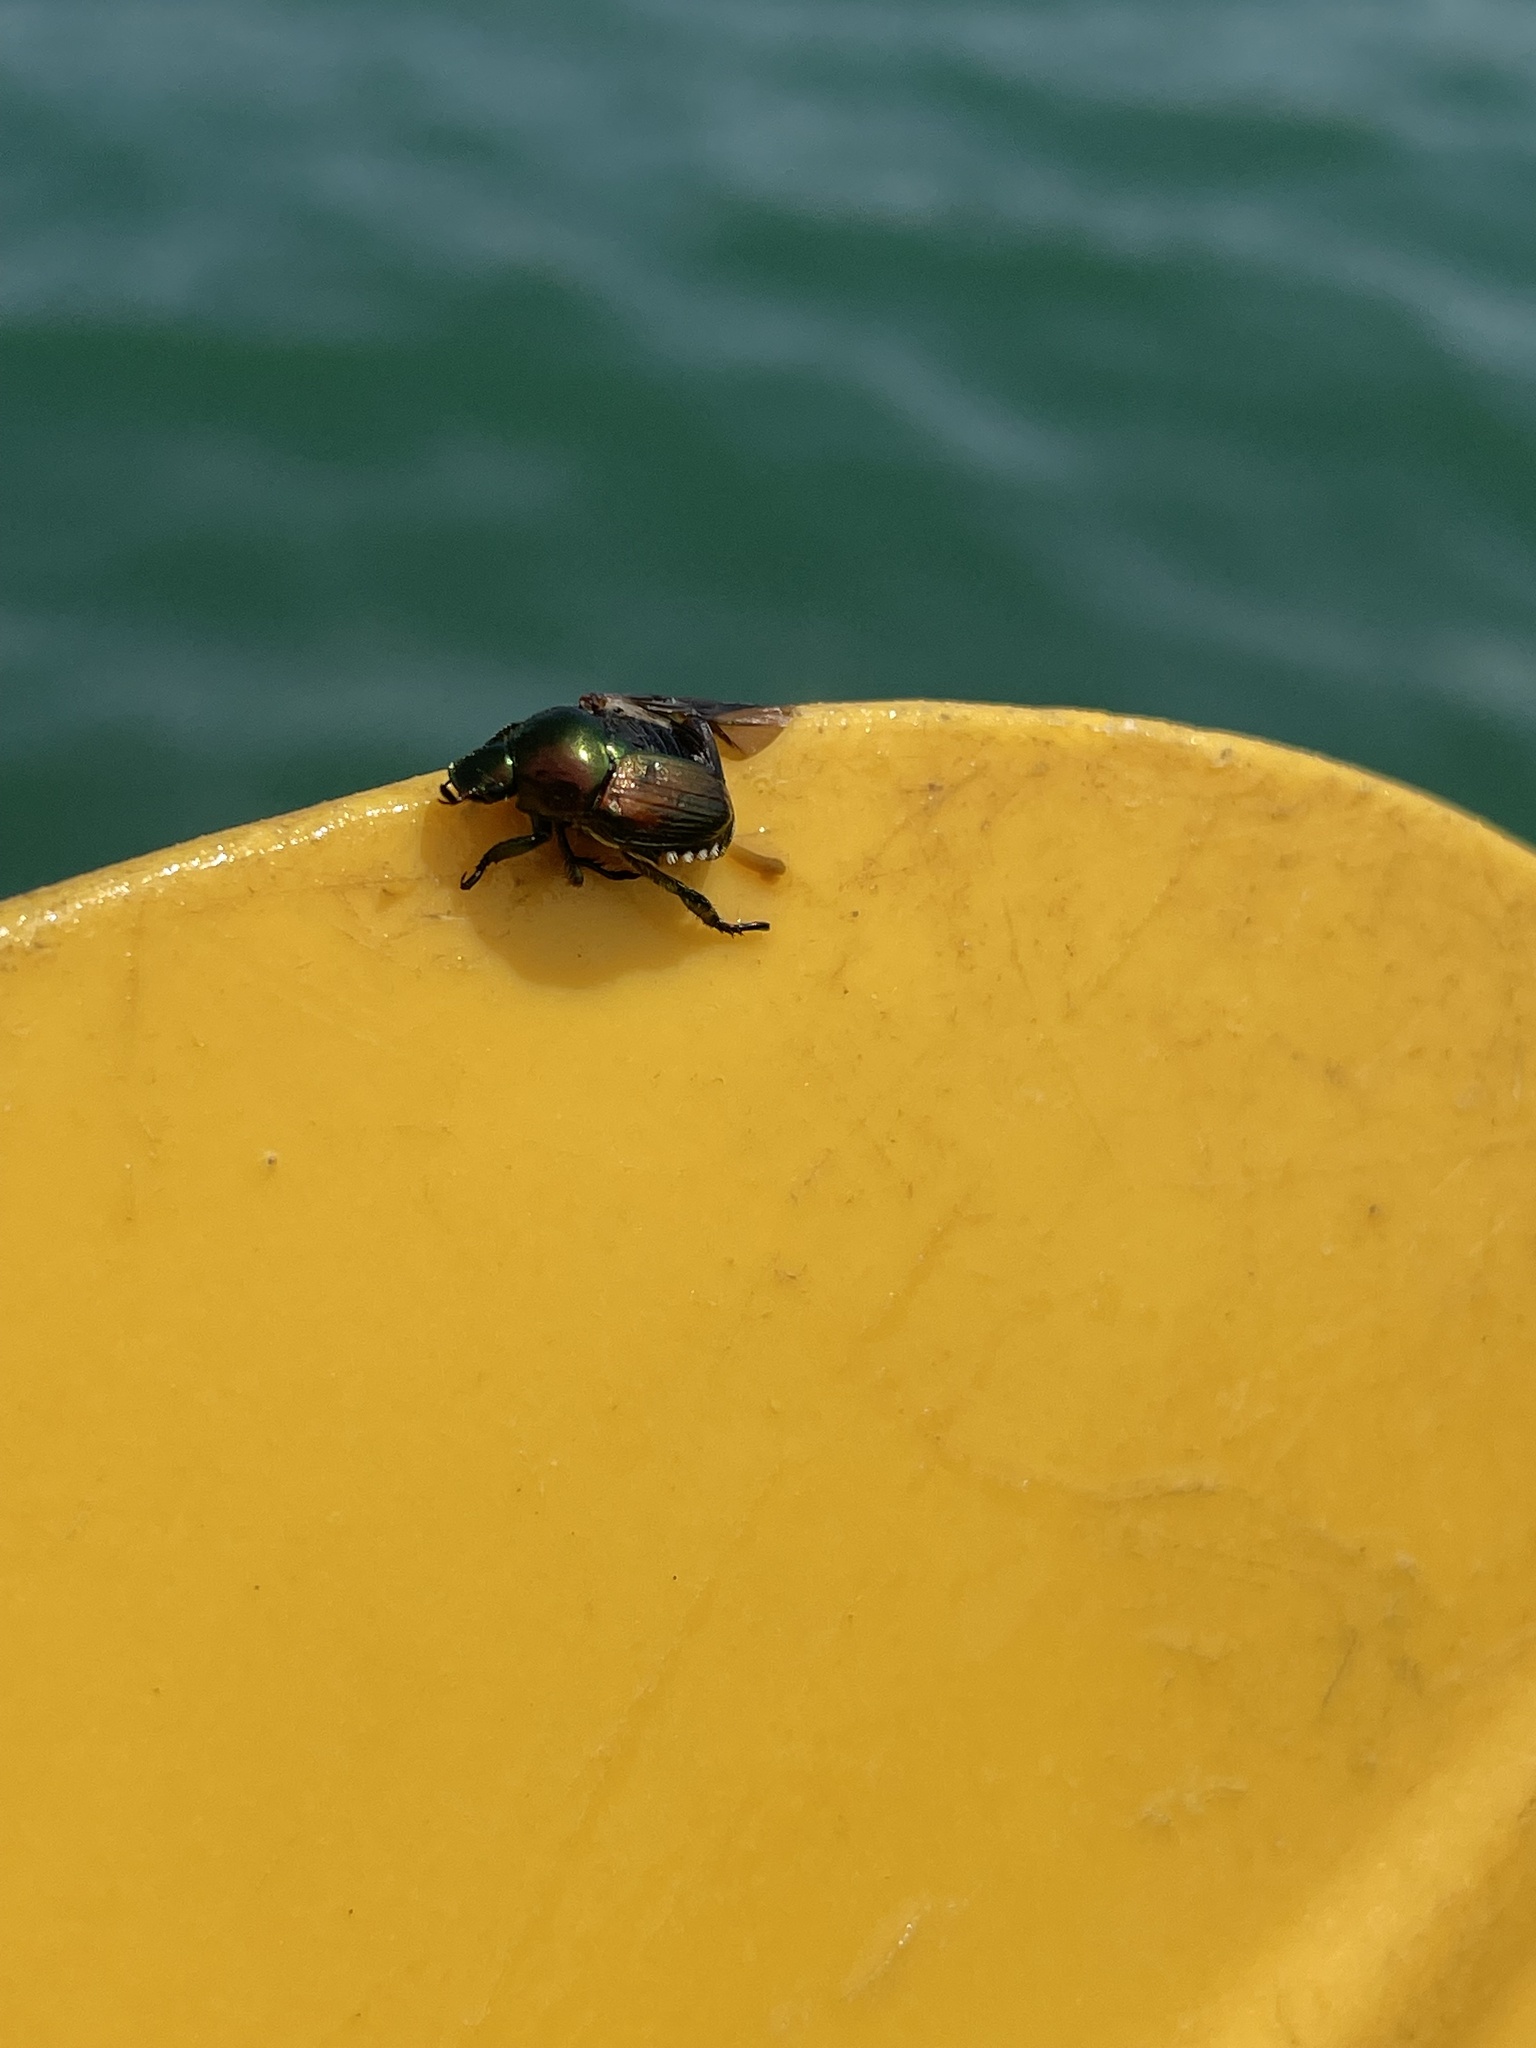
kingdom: Animalia
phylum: Arthropoda
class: Insecta
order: Coleoptera
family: Scarabaeidae
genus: Popillia
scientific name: Popillia japonica
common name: Japanese beetle
